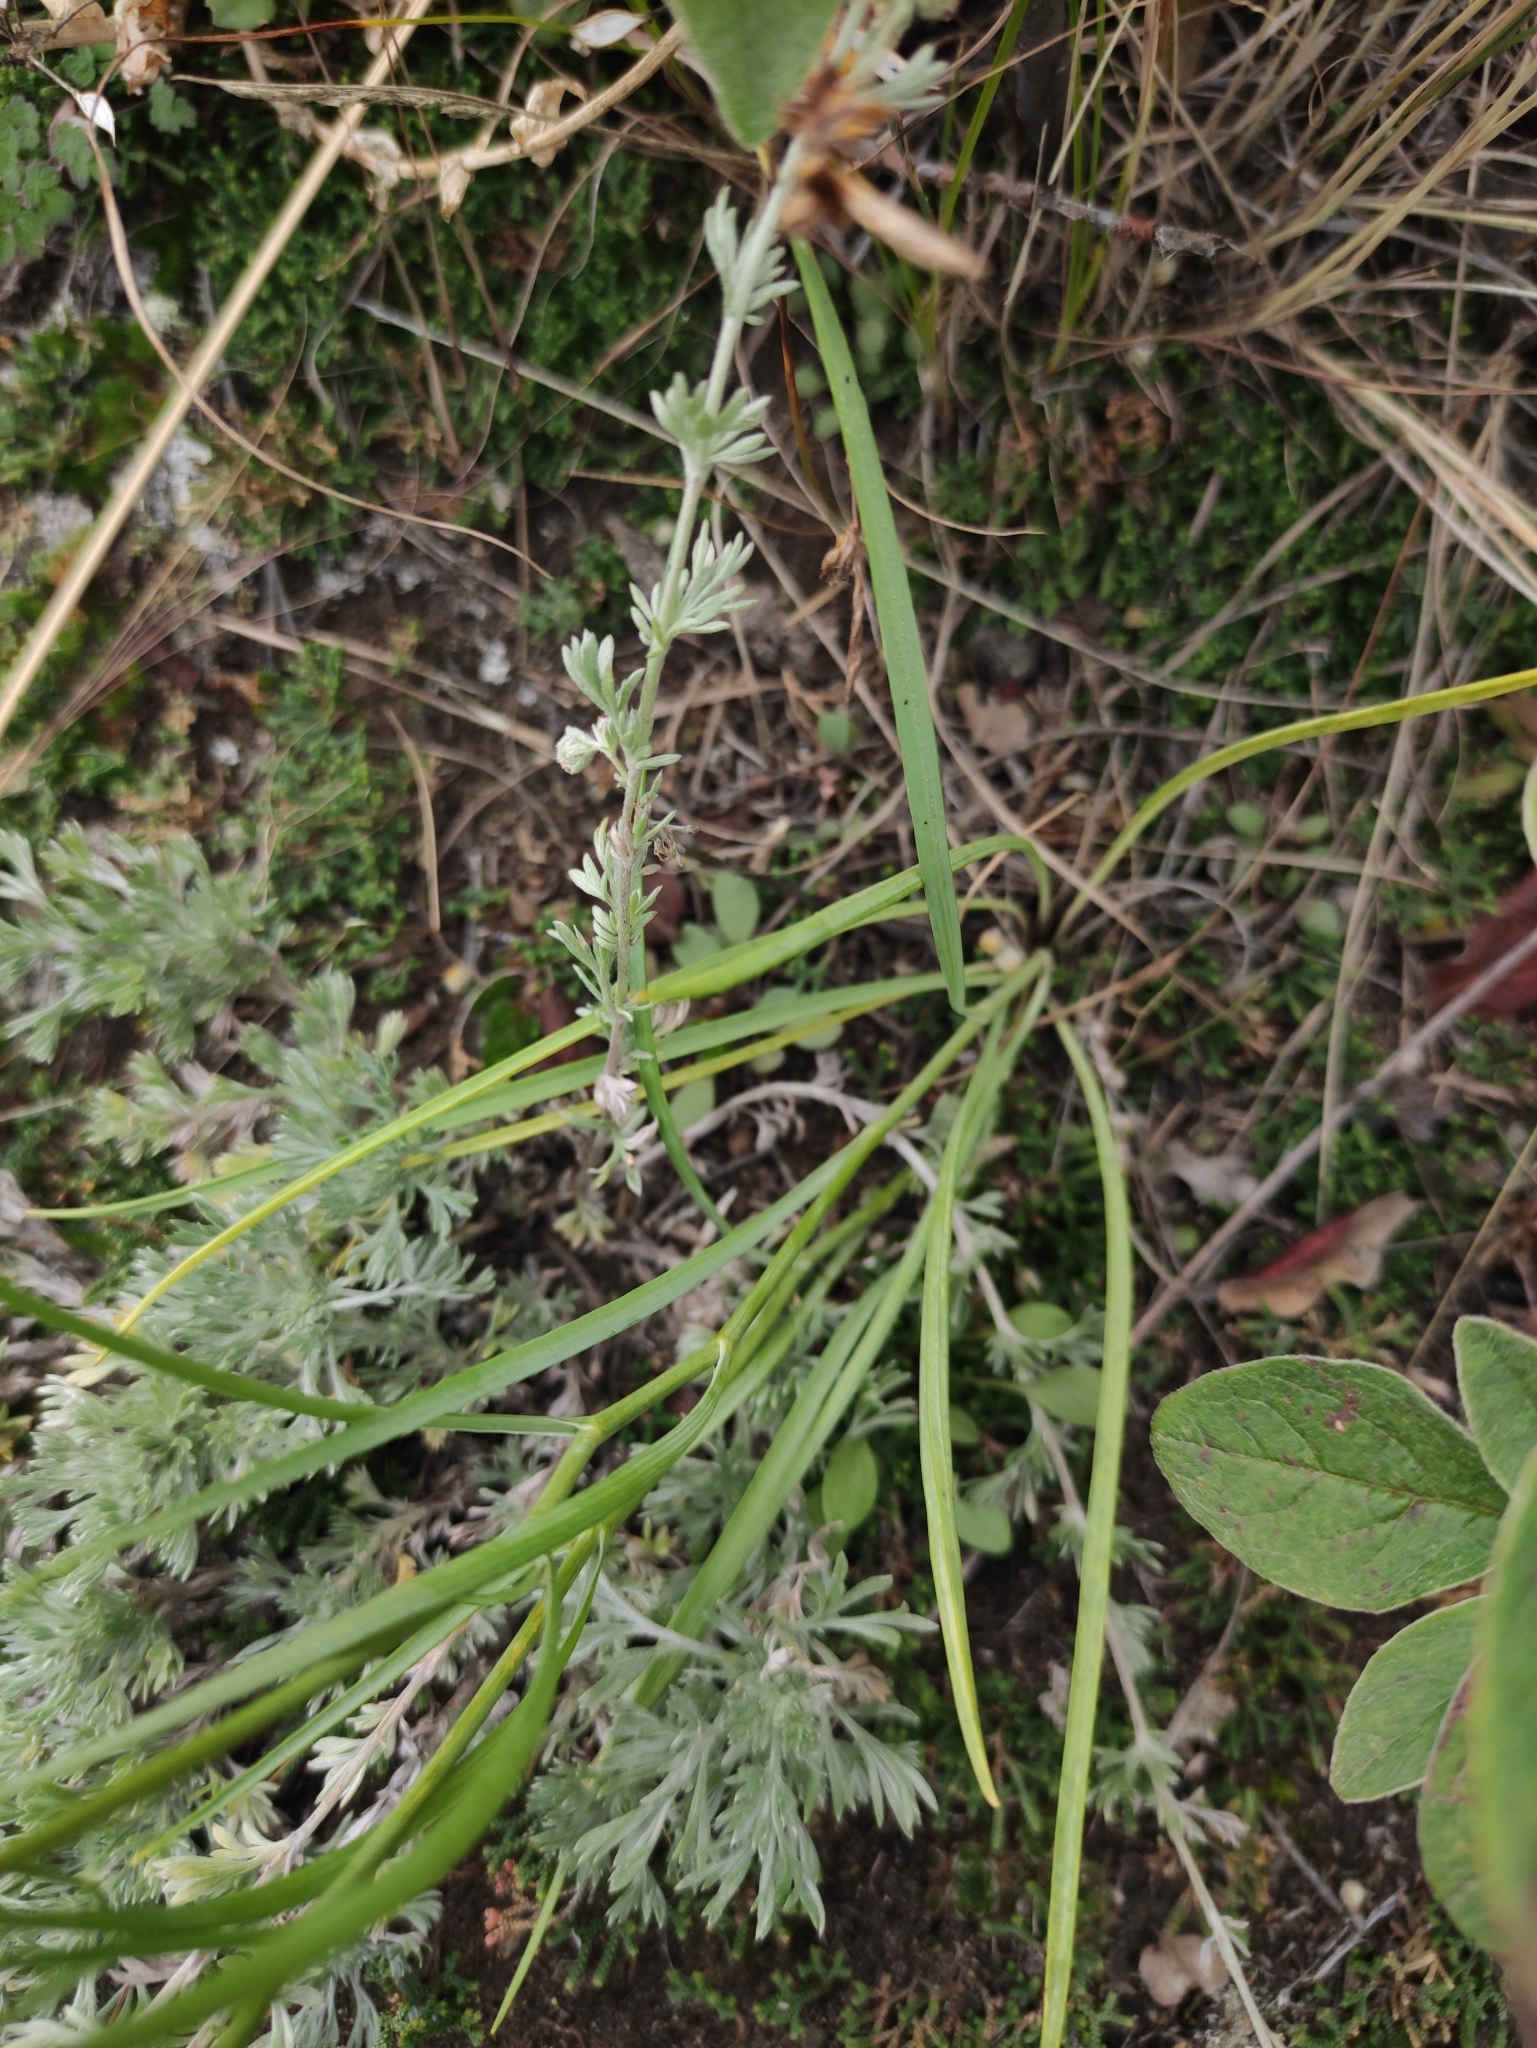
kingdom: Plantae
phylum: Tracheophyta
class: Magnoliopsida
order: Apiales
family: Apiaceae
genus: Bupleurum
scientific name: Bupleurum scorzonerifolium
